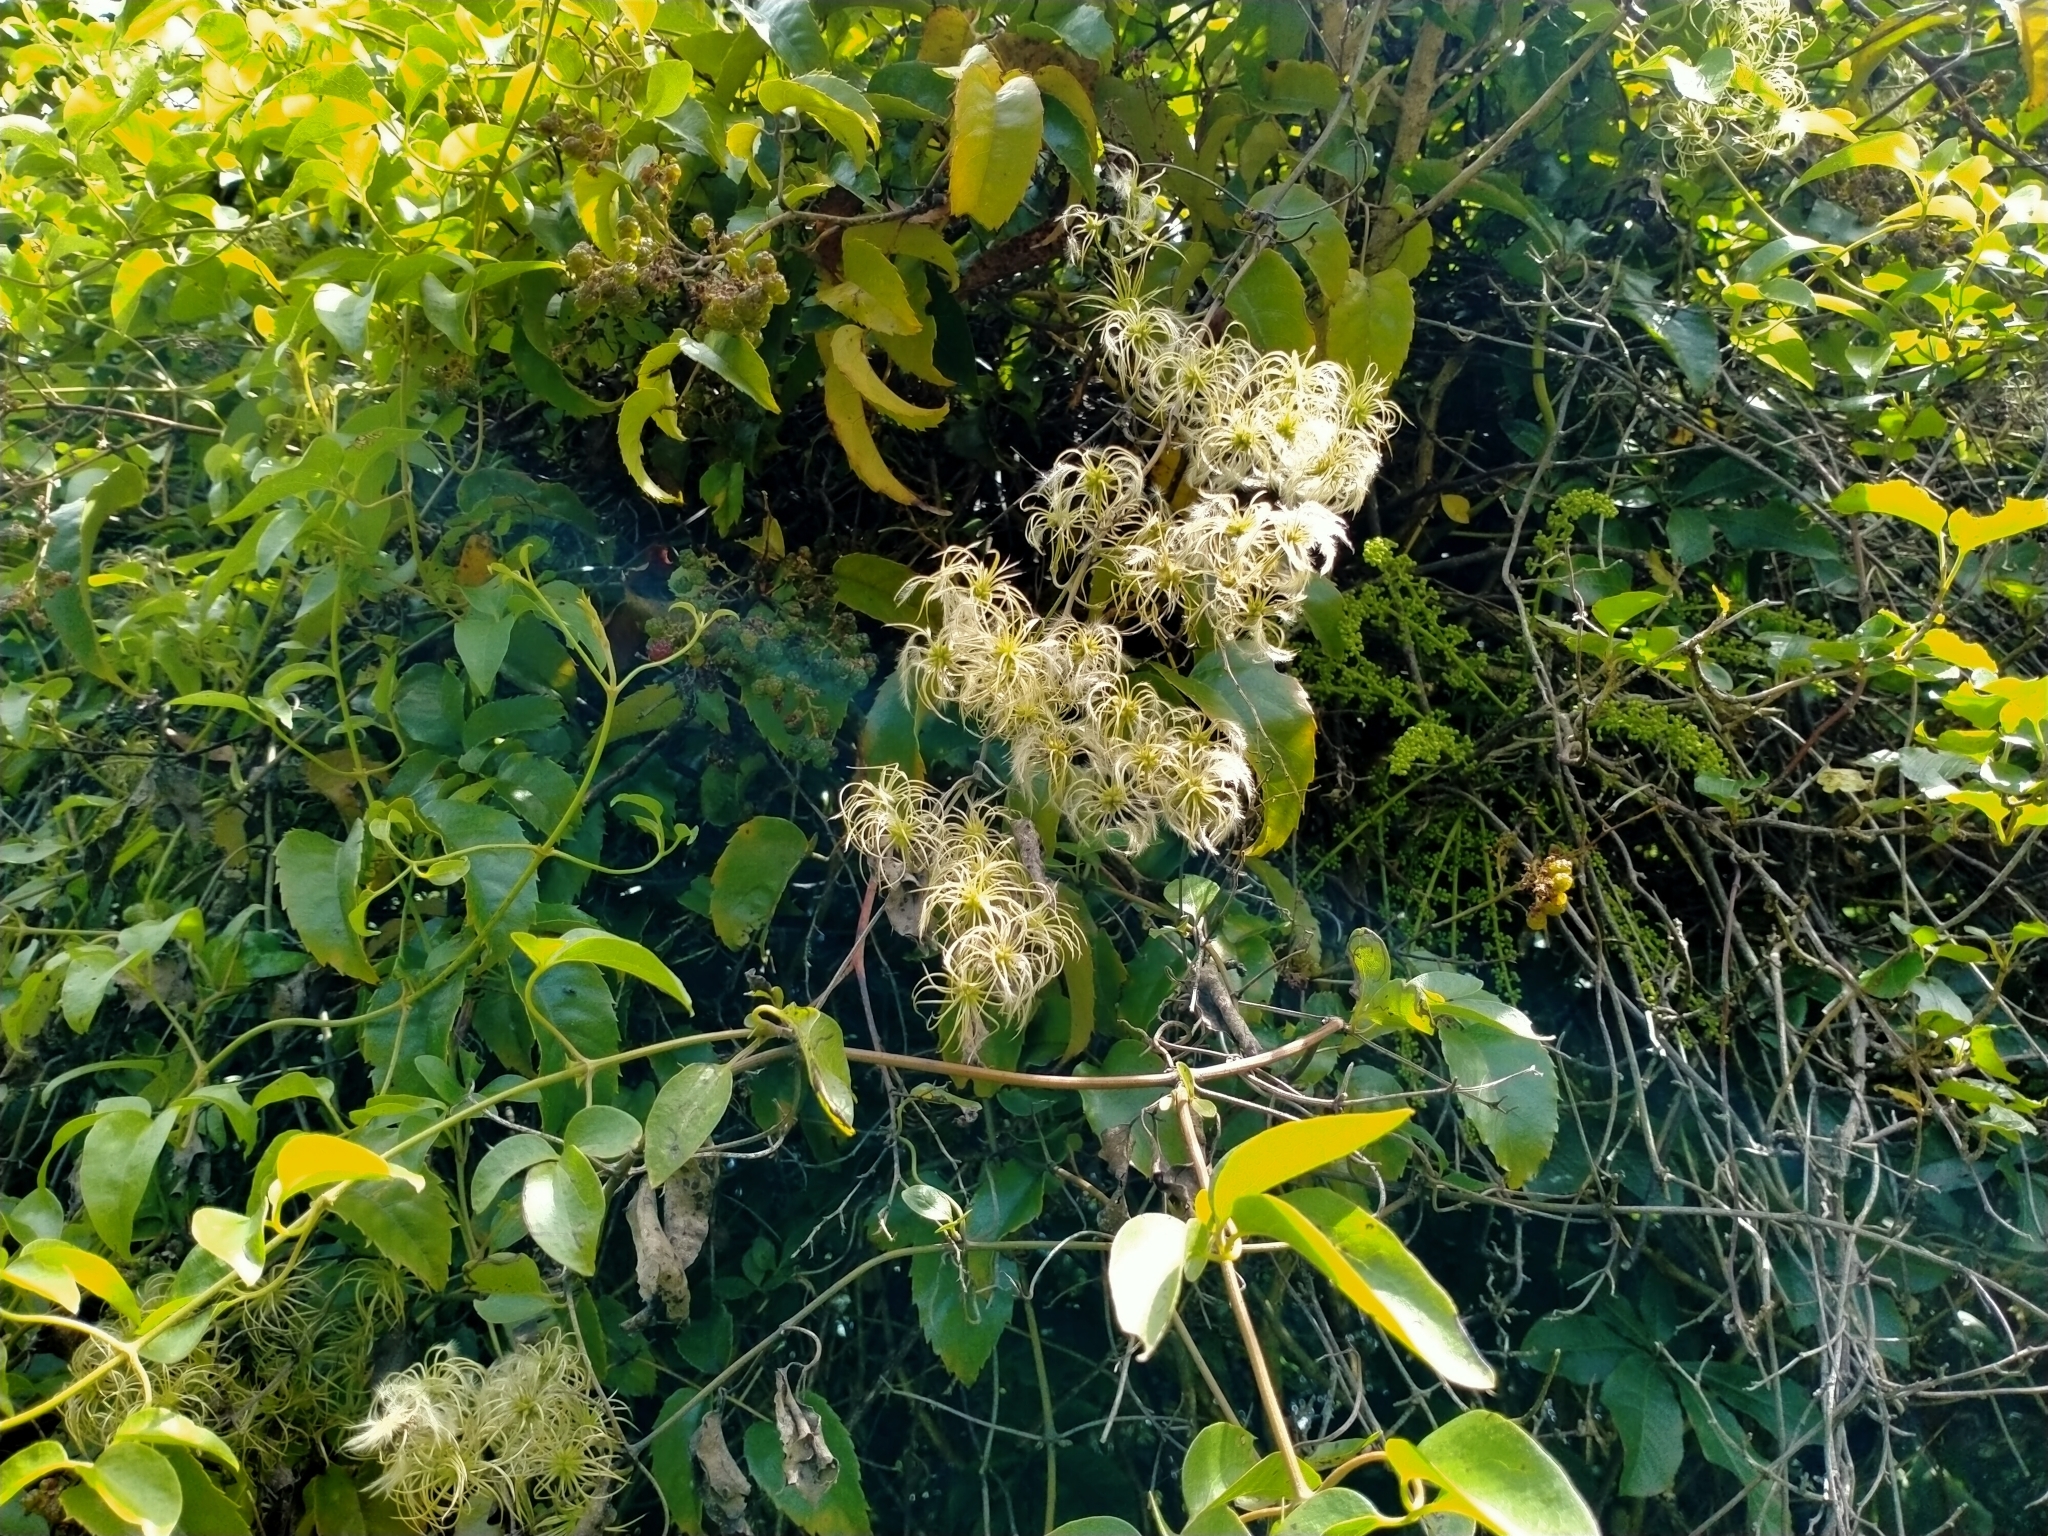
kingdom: Plantae
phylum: Tracheophyta
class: Magnoliopsida
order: Ranunculales
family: Ranunculaceae
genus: Clematis
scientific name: Clematis foetida
